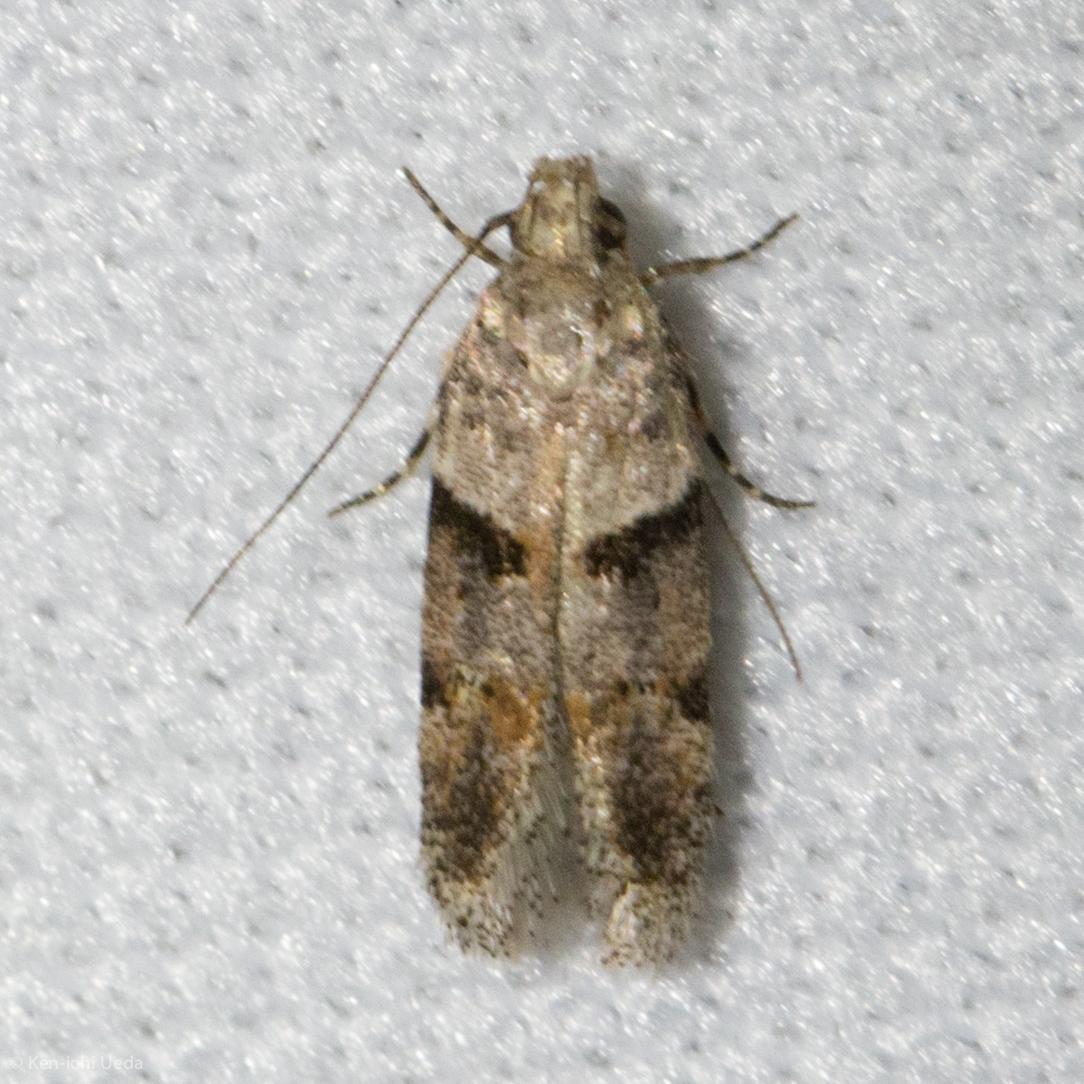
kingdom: Animalia
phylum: Arthropoda
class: Insecta
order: Lepidoptera
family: Gelechiidae
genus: Faculta
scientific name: Faculta inaequalis
